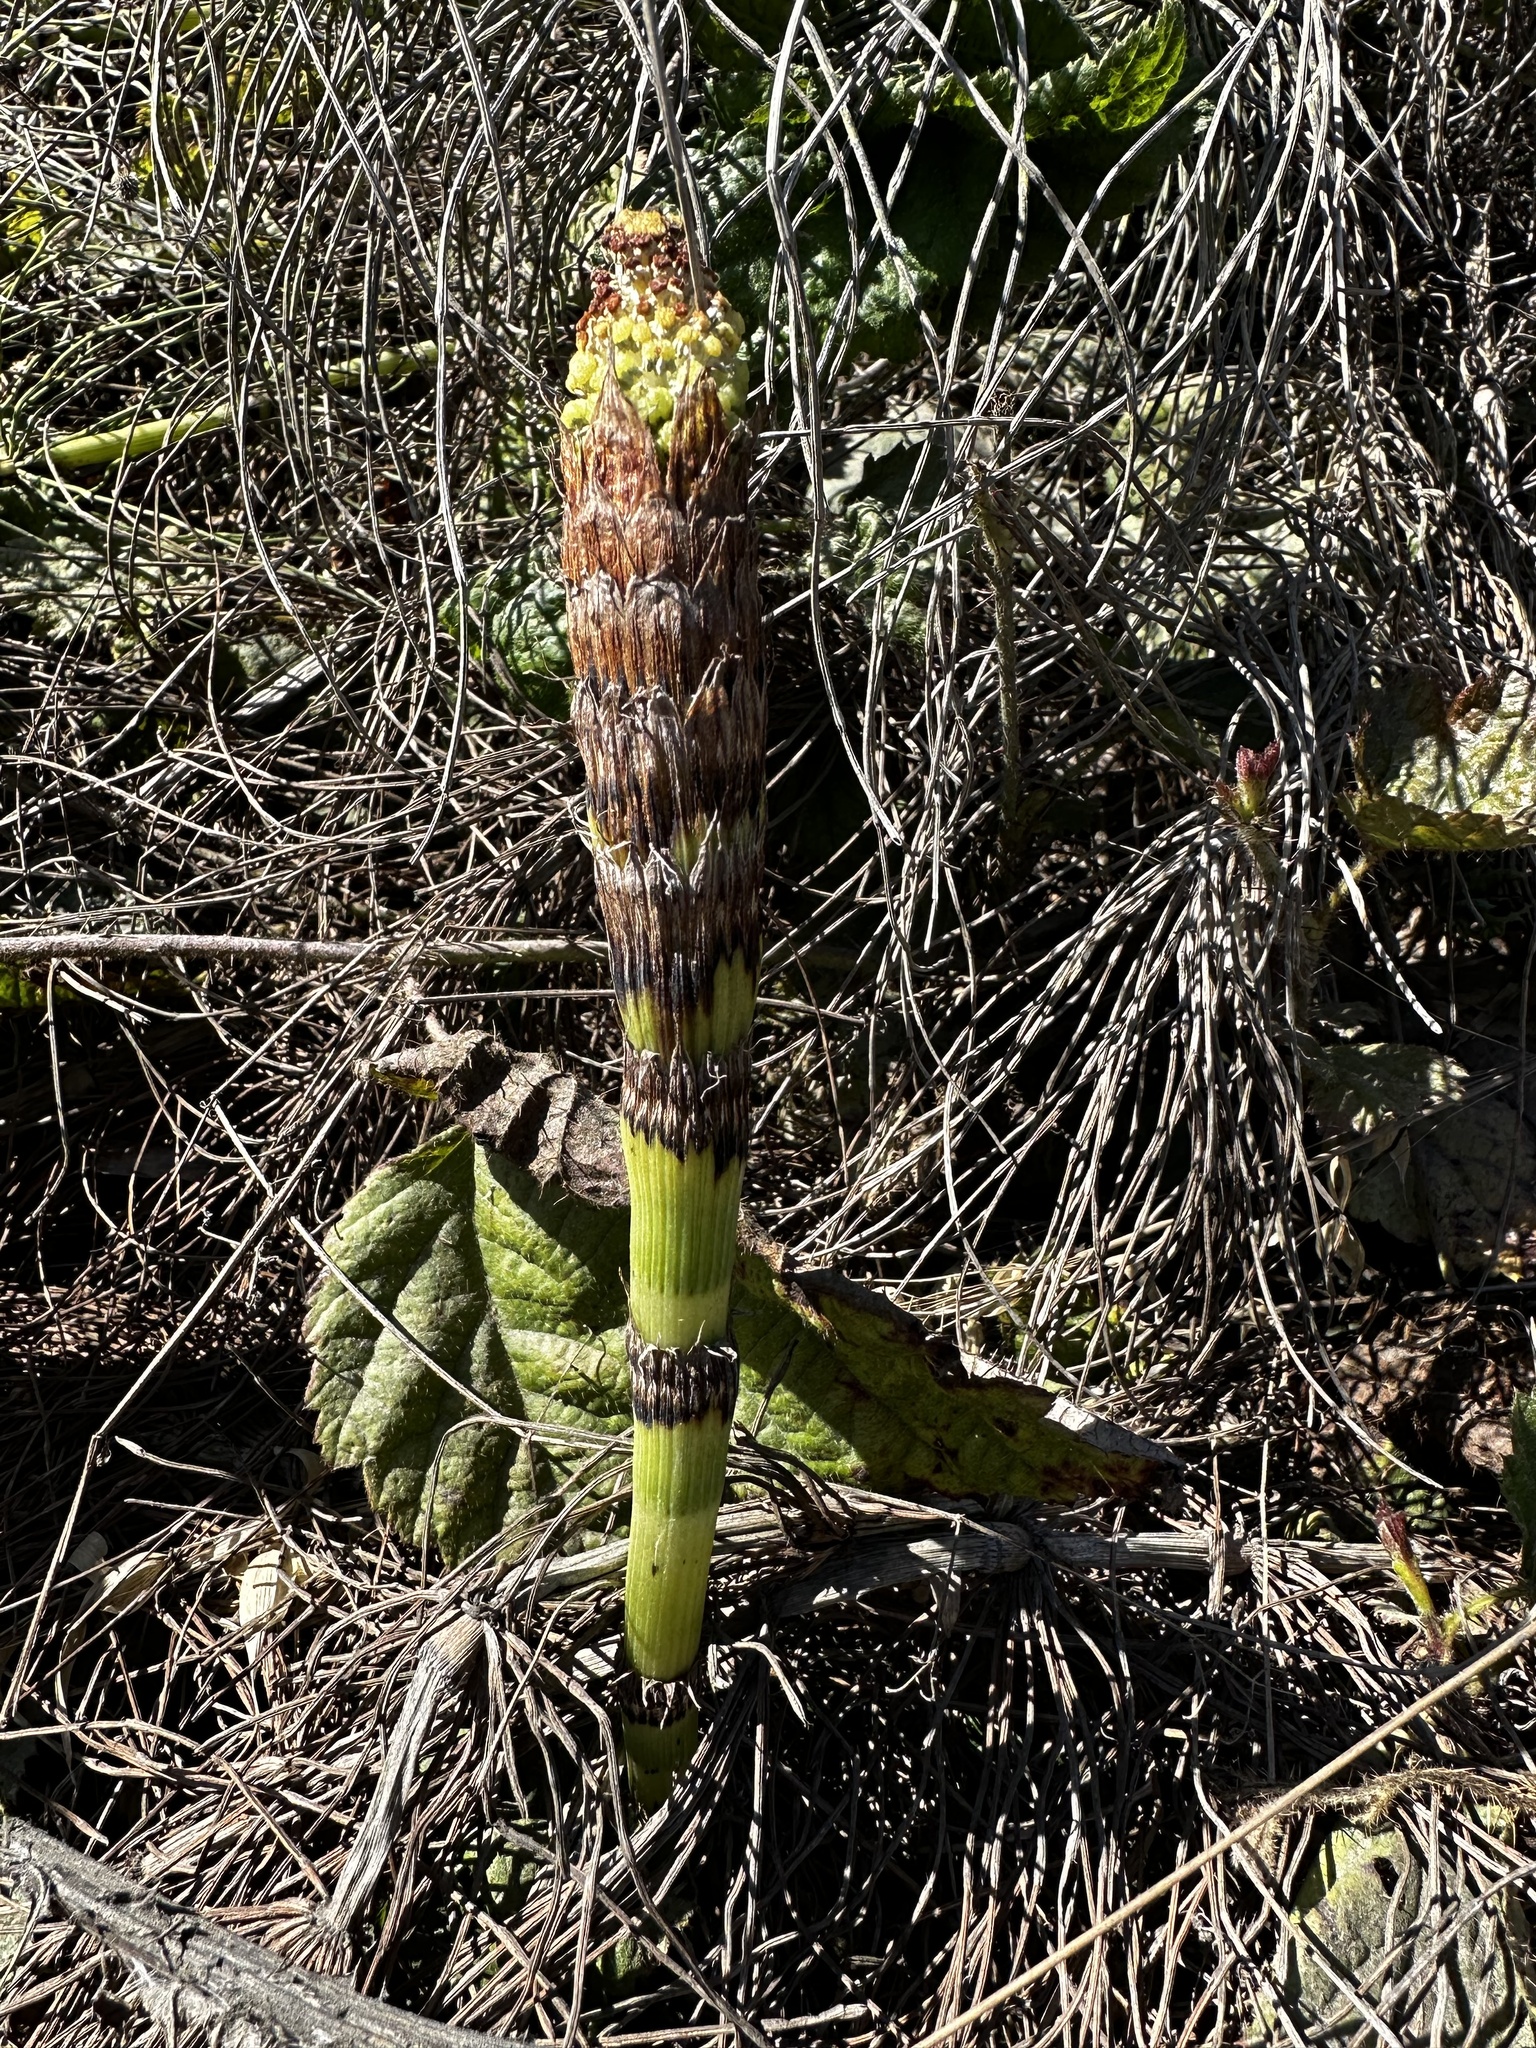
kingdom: Plantae
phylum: Tracheophyta
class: Polypodiopsida
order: Equisetales
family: Equisetaceae
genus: Equisetum
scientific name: Equisetum telmateia
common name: Great horsetail
